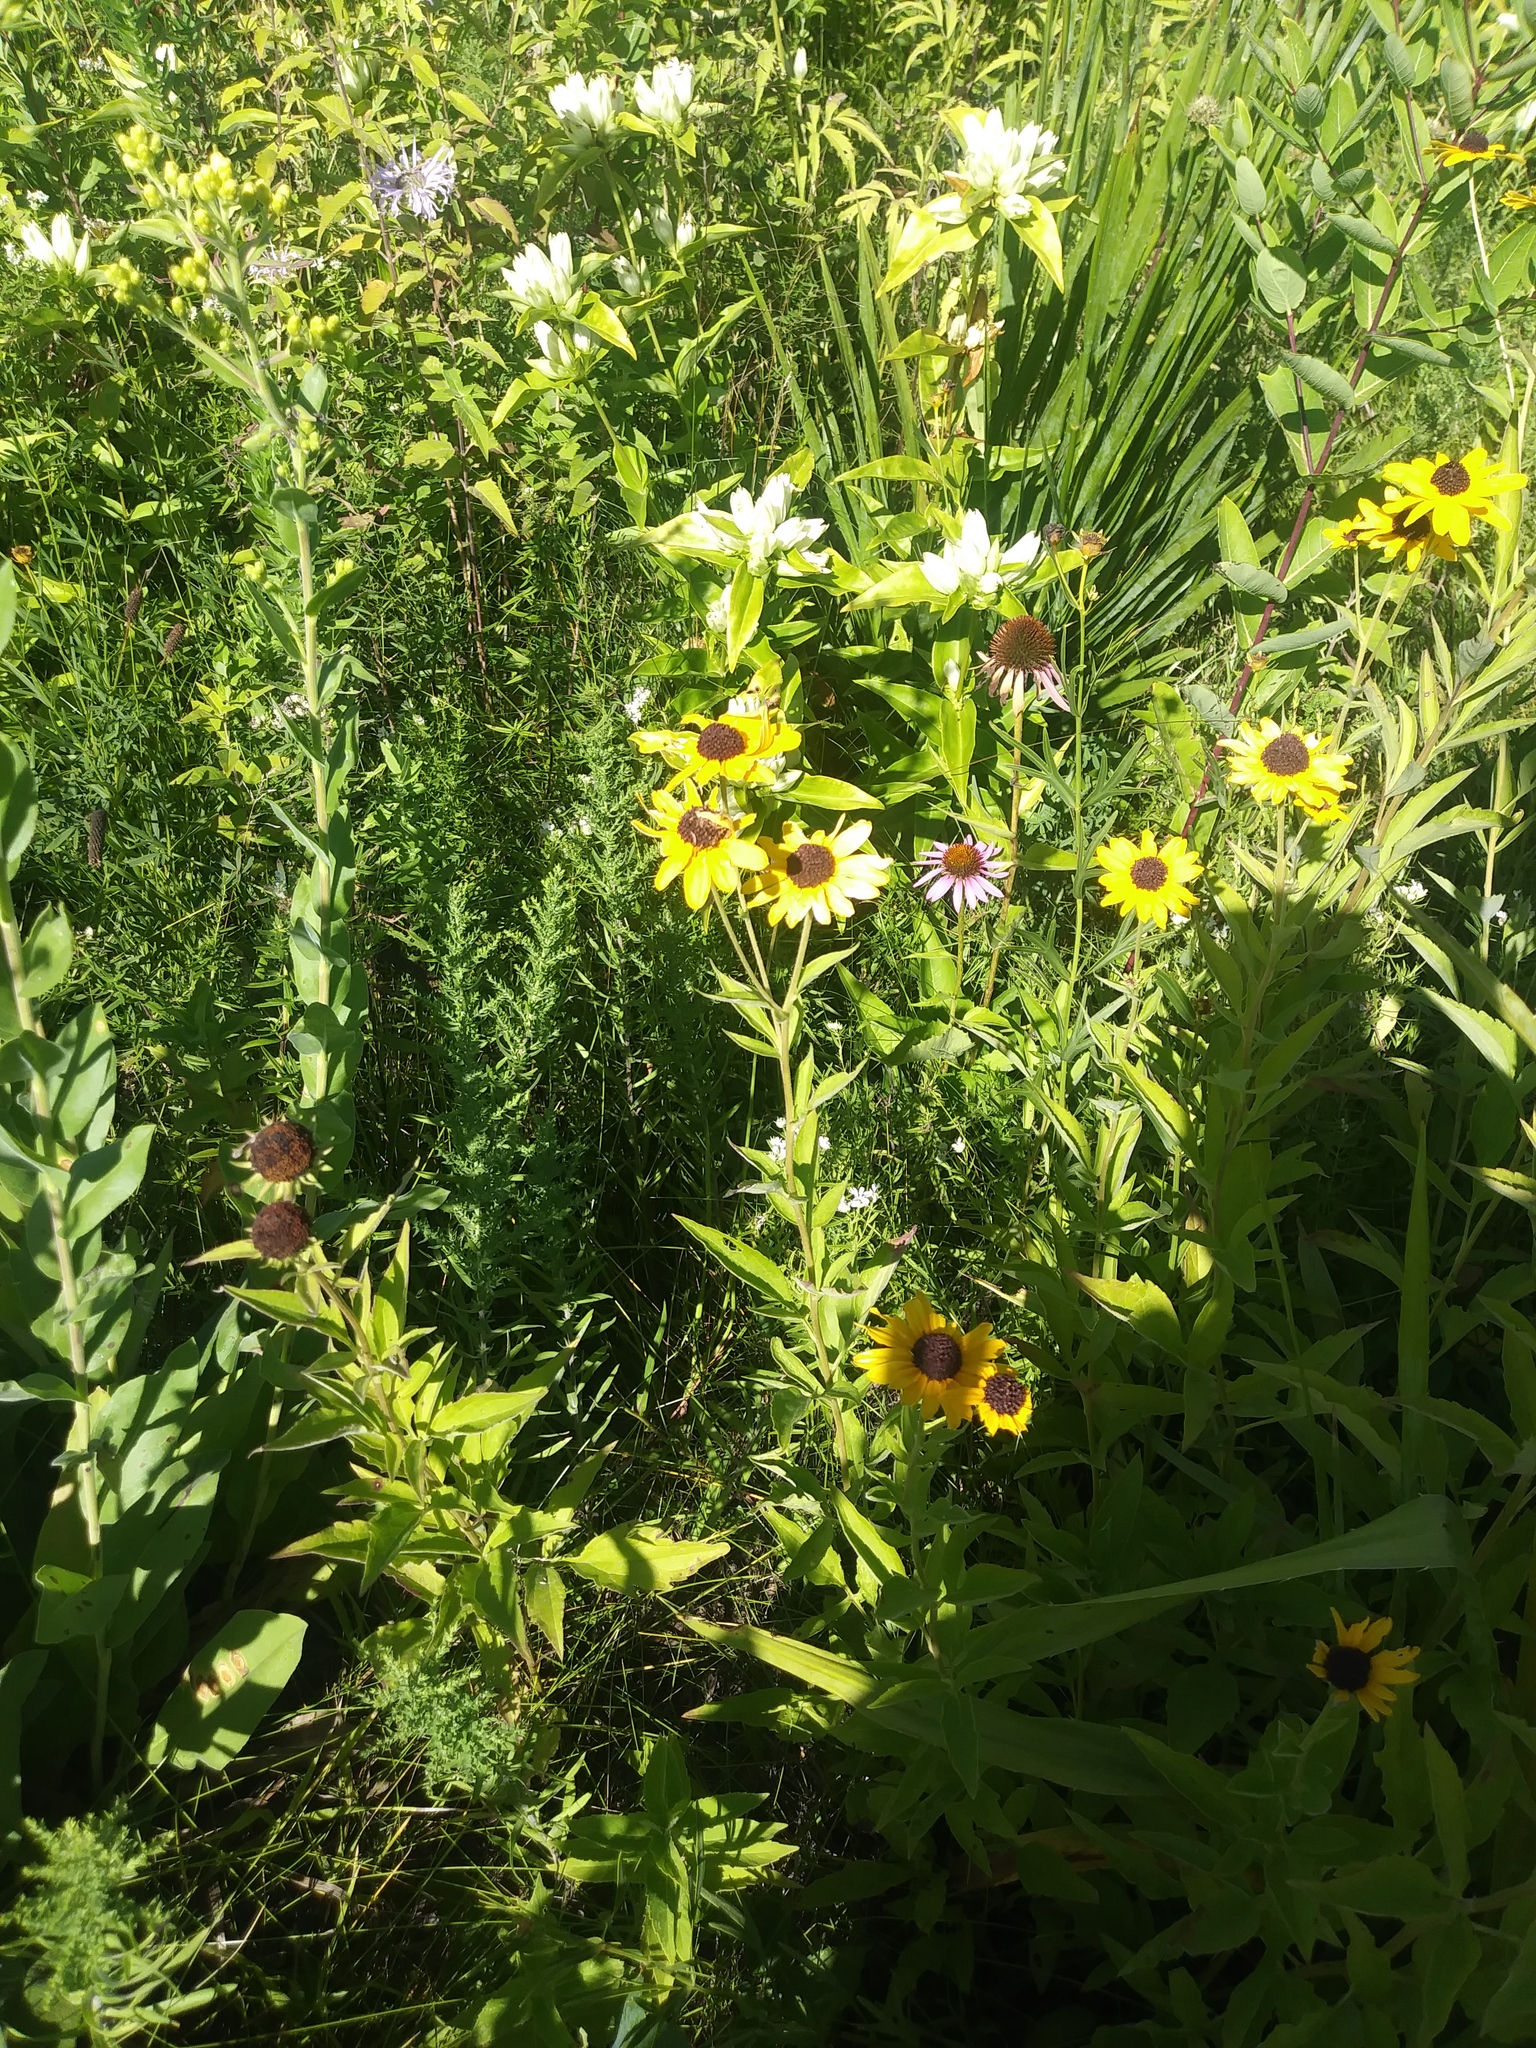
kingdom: Plantae
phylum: Tracheophyta
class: Magnoliopsida
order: Gentianales
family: Gentianaceae
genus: Gentiana
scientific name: Gentiana alba
